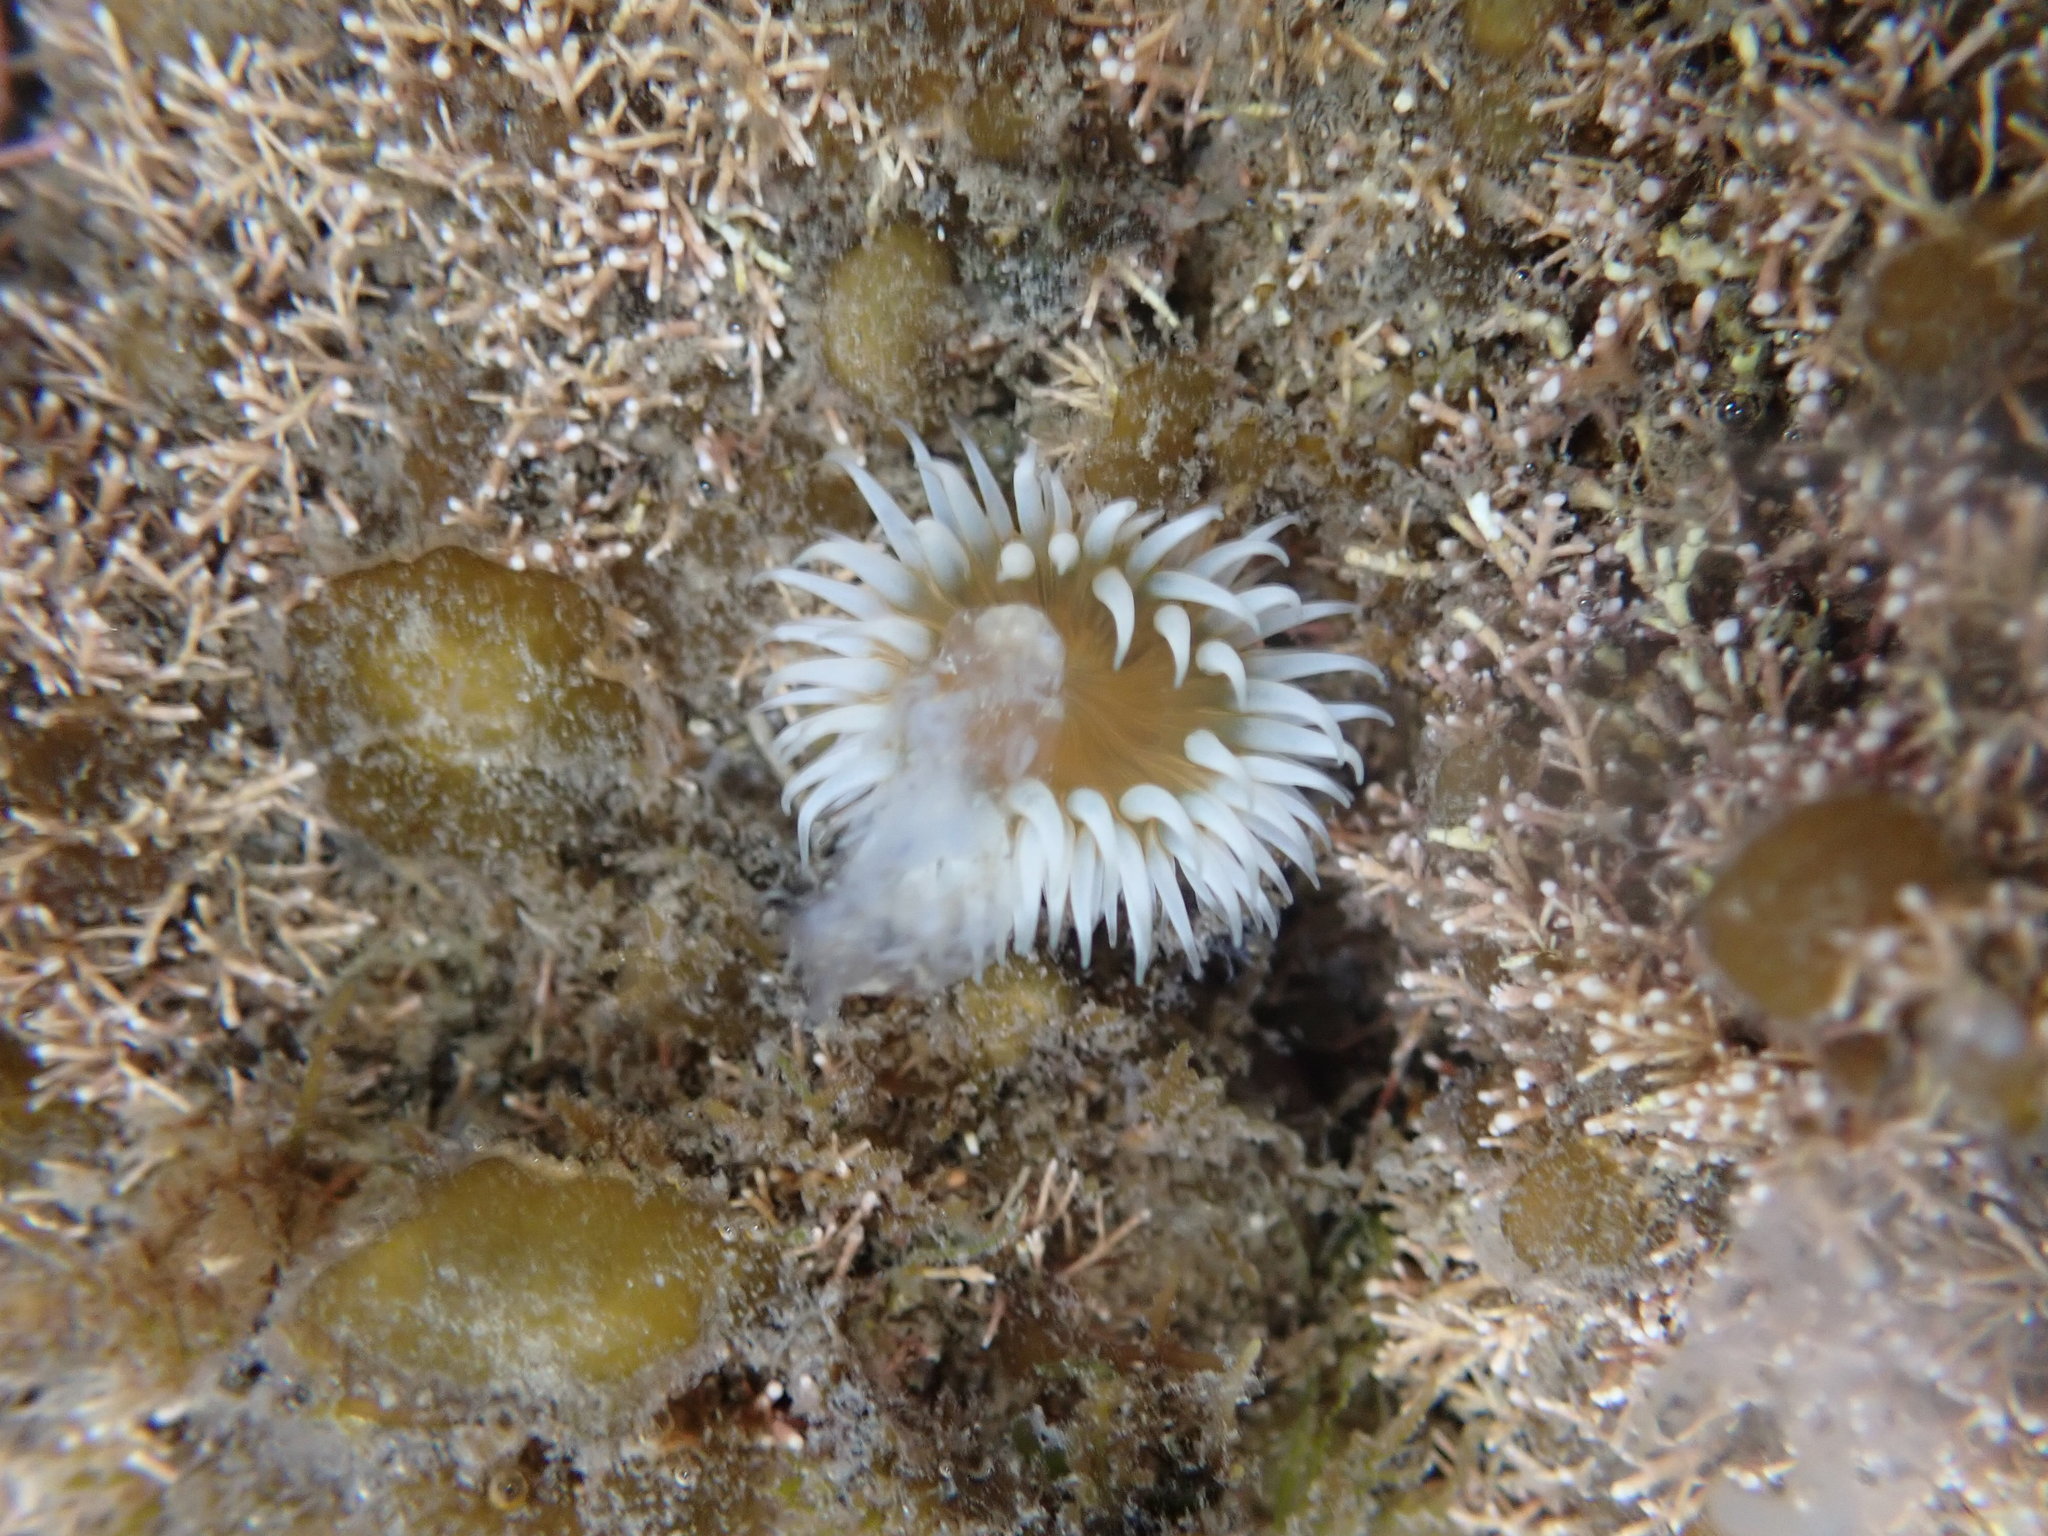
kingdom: Animalia
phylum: Cnidaria
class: Anthozoa
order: Actiniaria
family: Sagartiidae
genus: Anthothoe
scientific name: Anthothoe albocincta
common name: Orange striped anemone
